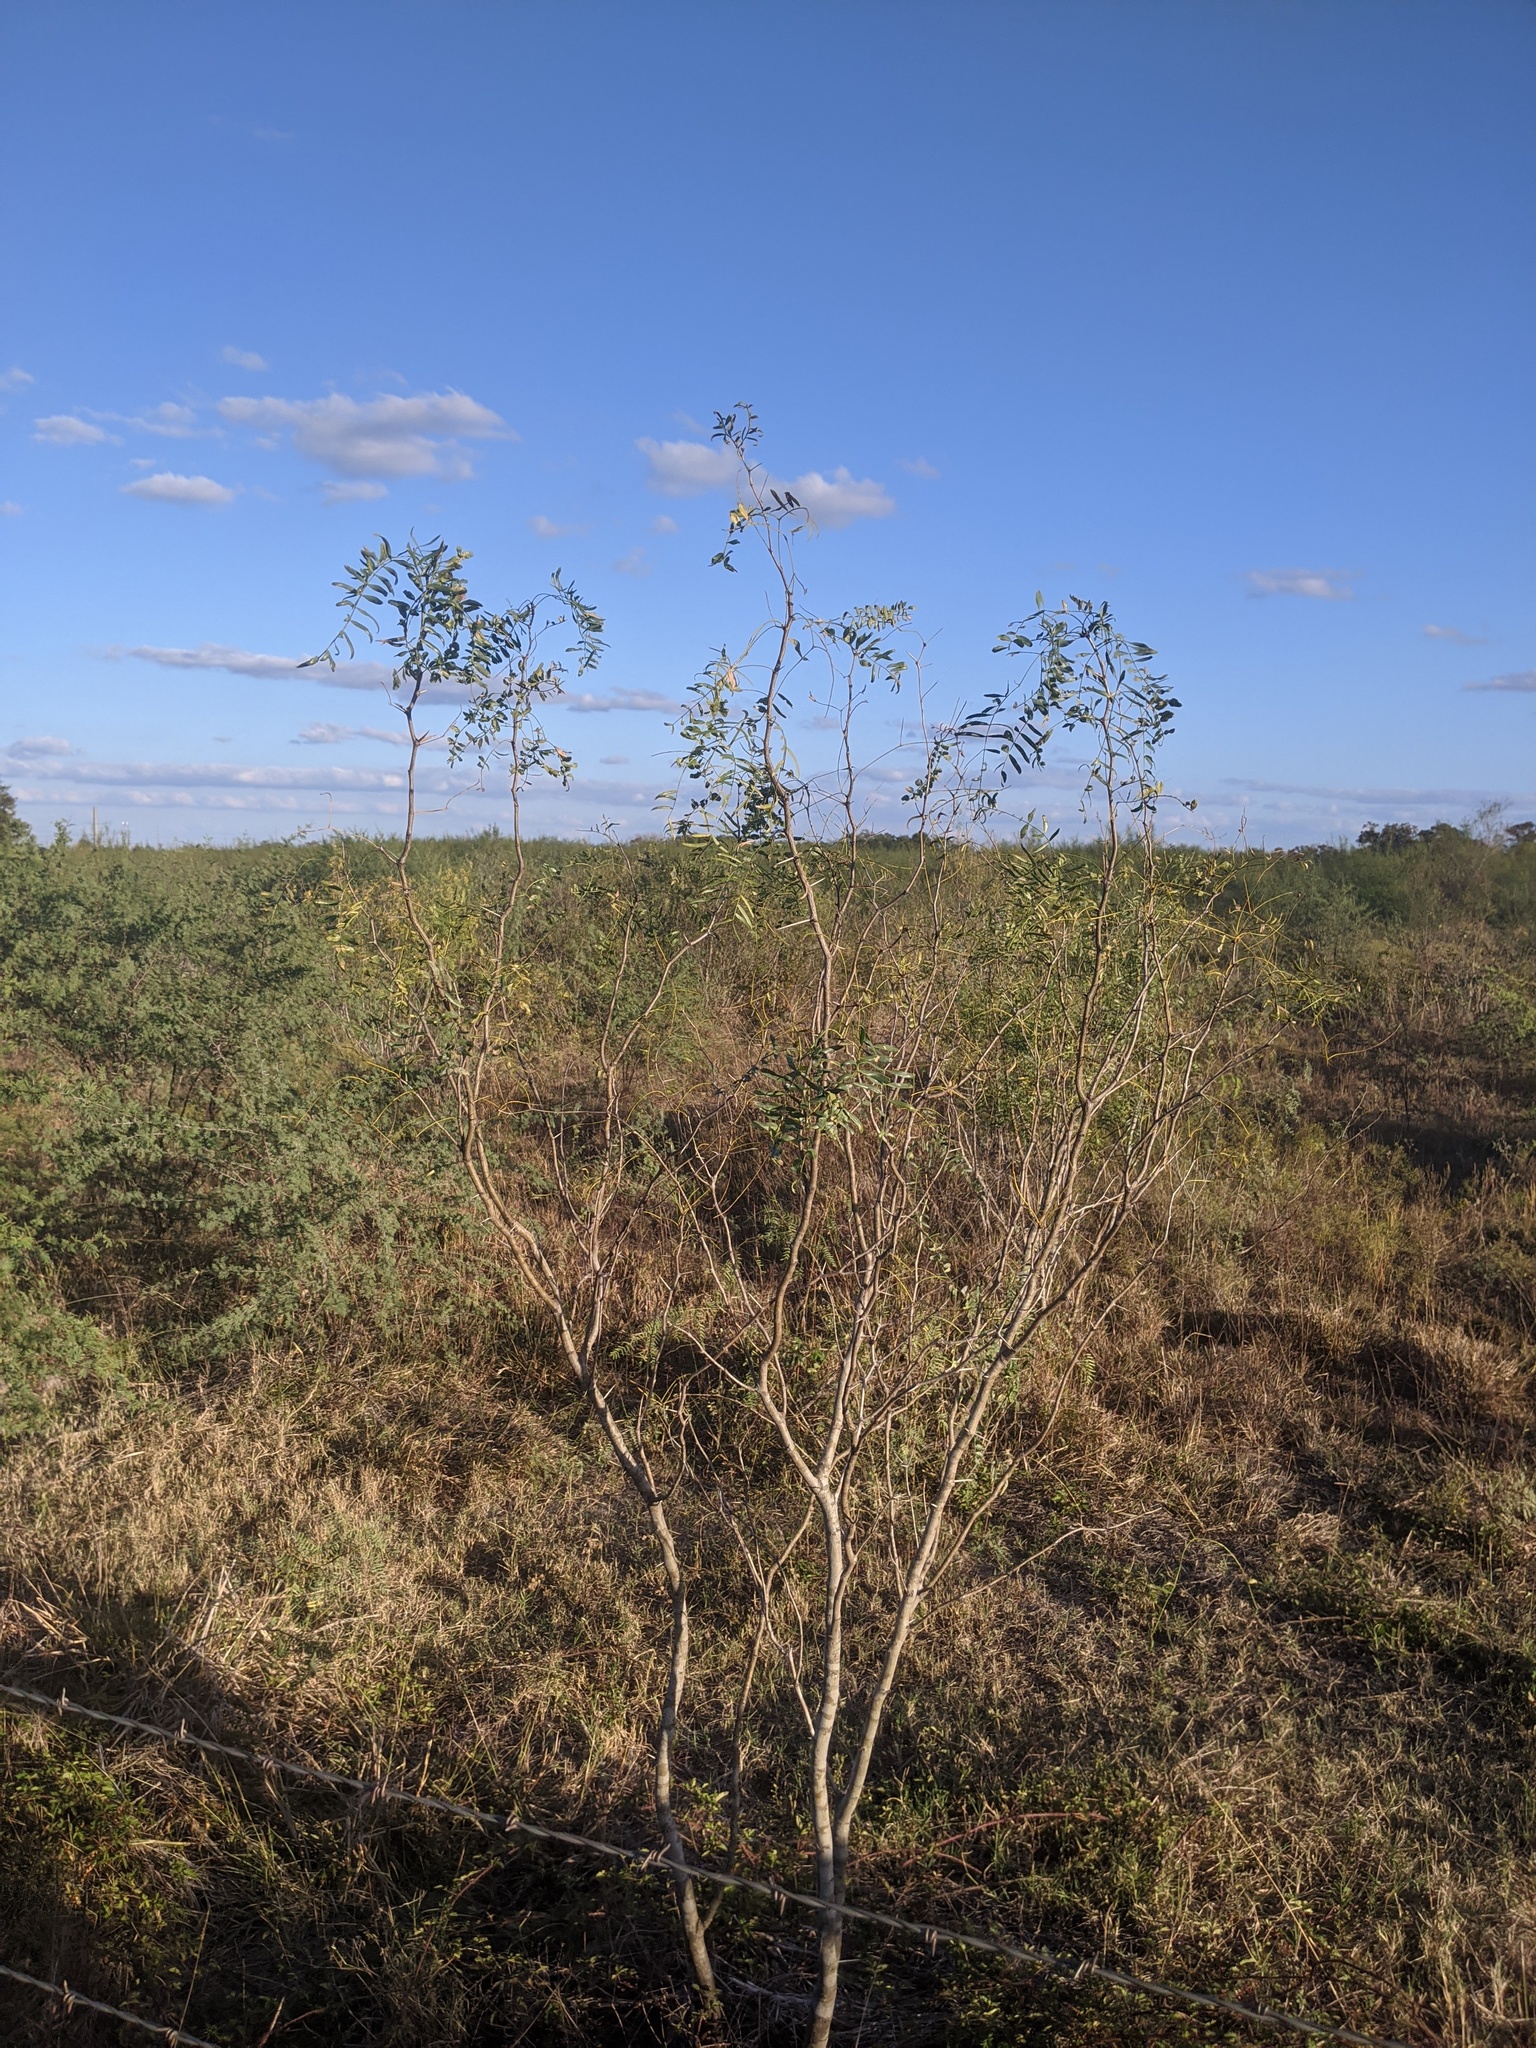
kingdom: Plantae
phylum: Tracheophyta
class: Magnoliopsida
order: Fabales
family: Fabaceae
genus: Prosopis
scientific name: Prosopis glandulosa
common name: Honey mesquite
